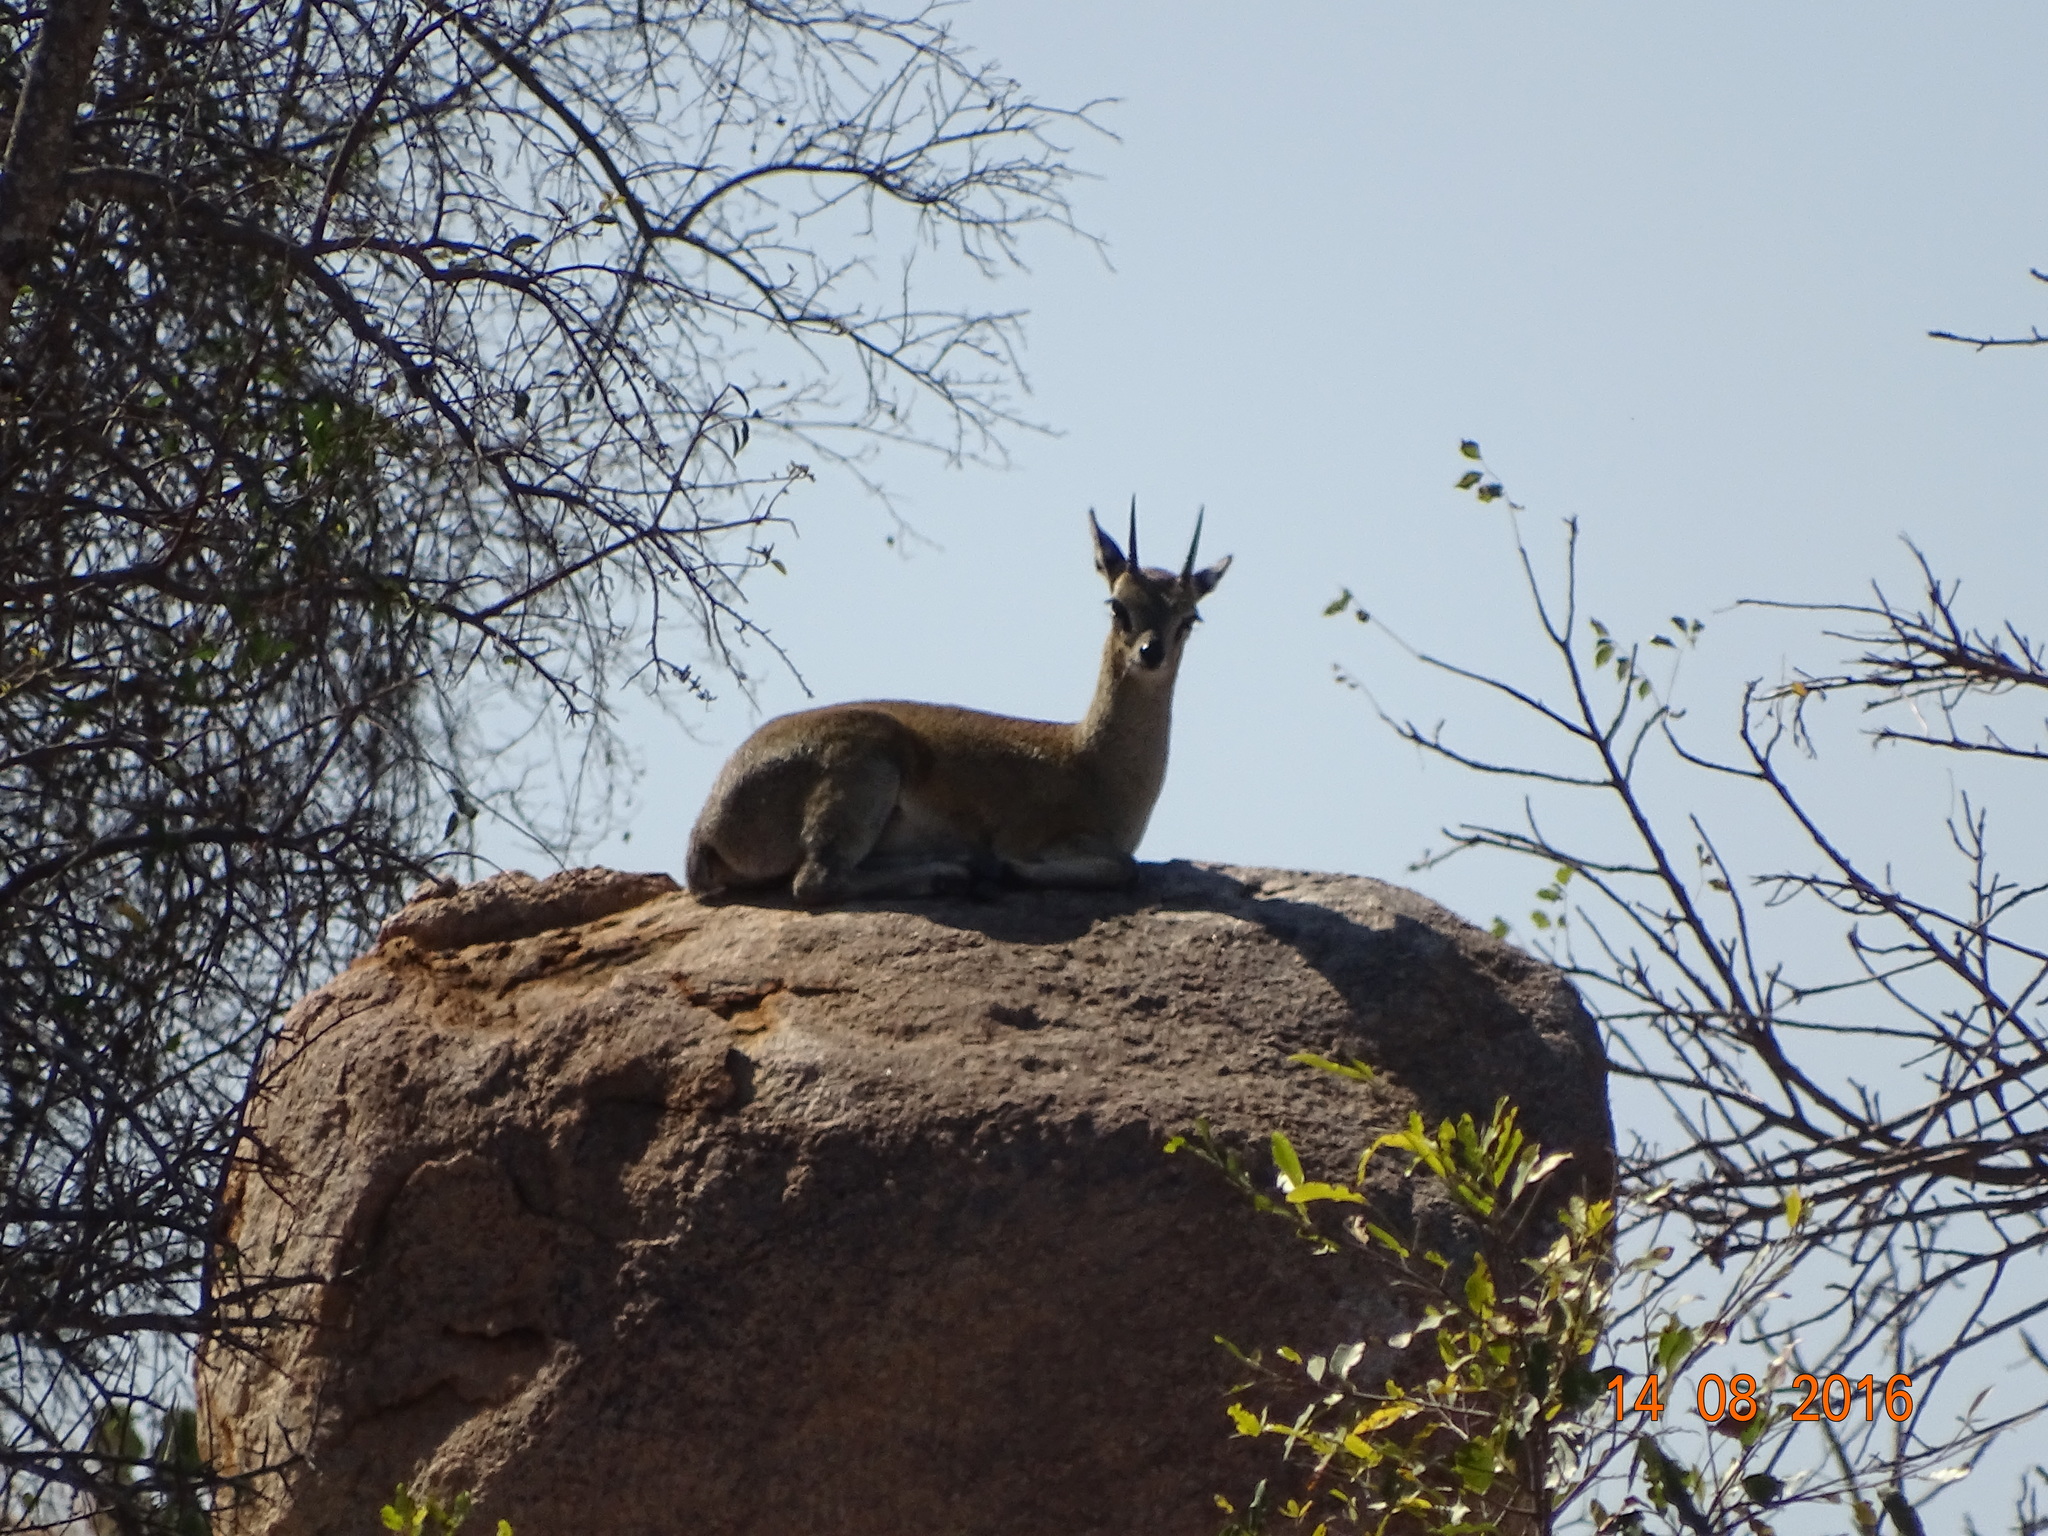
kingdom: Animalia
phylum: Chordata
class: Mammalia
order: Artiodactyla
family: Bovidae
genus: Oreotragus
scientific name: Oreotragus oreotragus
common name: Klipspringer
